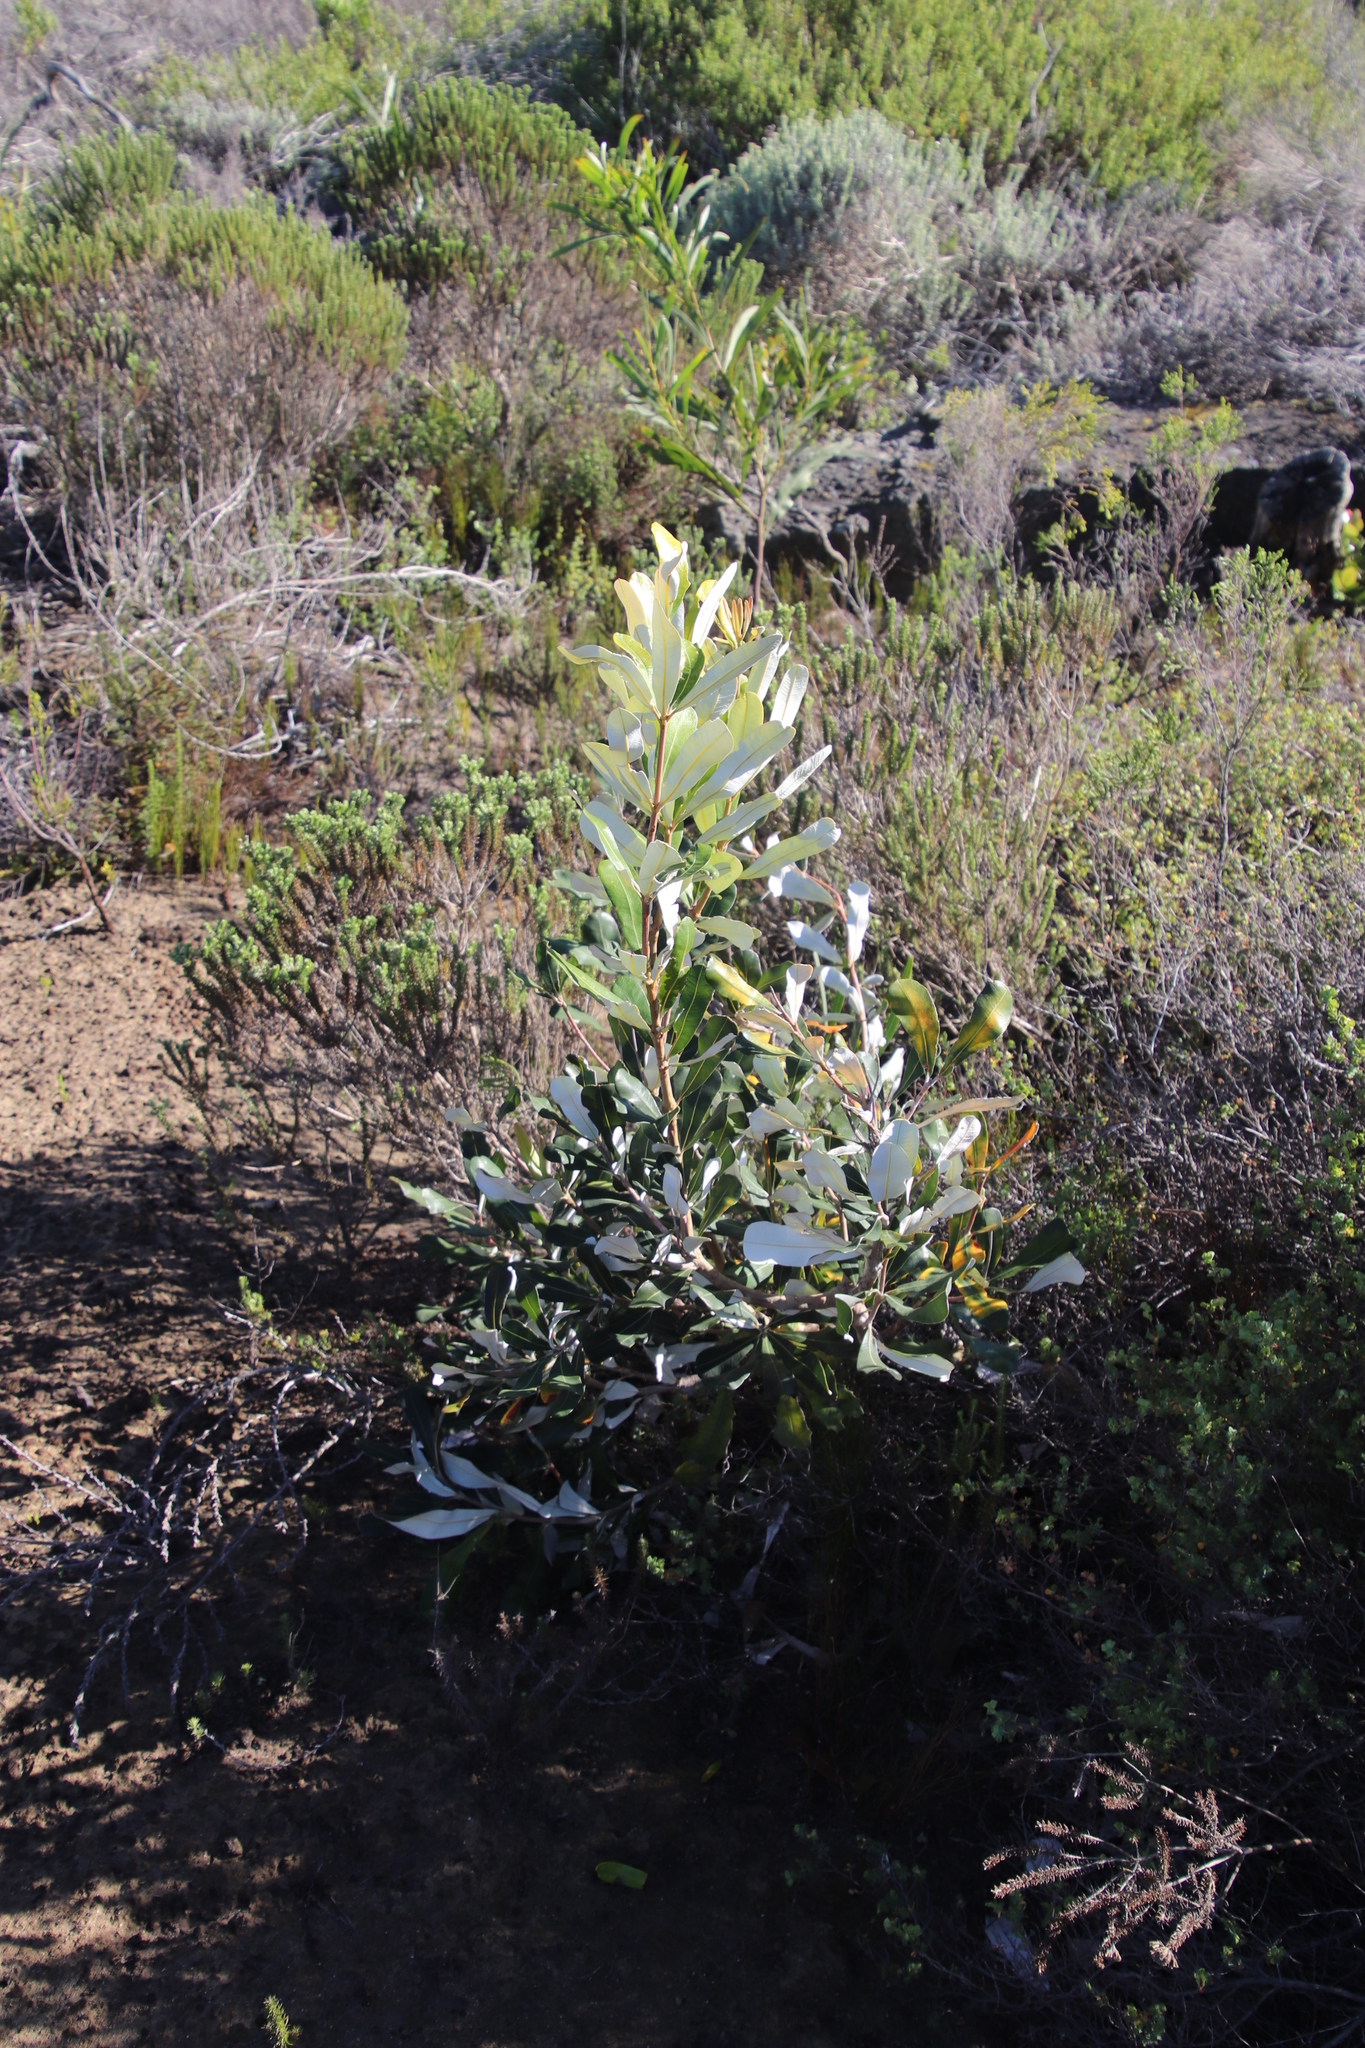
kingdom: Plantae
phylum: Tracheophyta
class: Magnoliopsida
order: Asterales
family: Asteraceae
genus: Tarchonanthus
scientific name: Tarchonanthus littoralis
